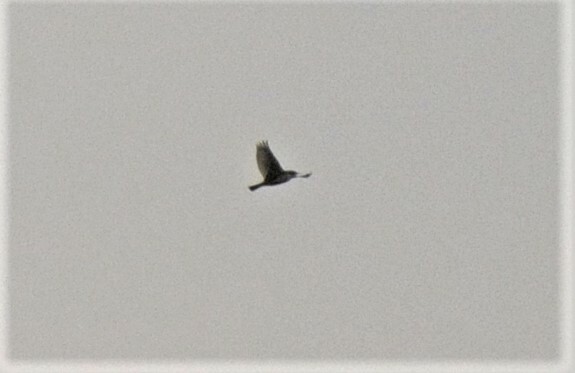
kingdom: Animalia
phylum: Chordata
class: Aves
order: Passeriformes
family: Alaudidae
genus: Alauda
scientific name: Alauda arvensis
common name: Eurasian skylark
